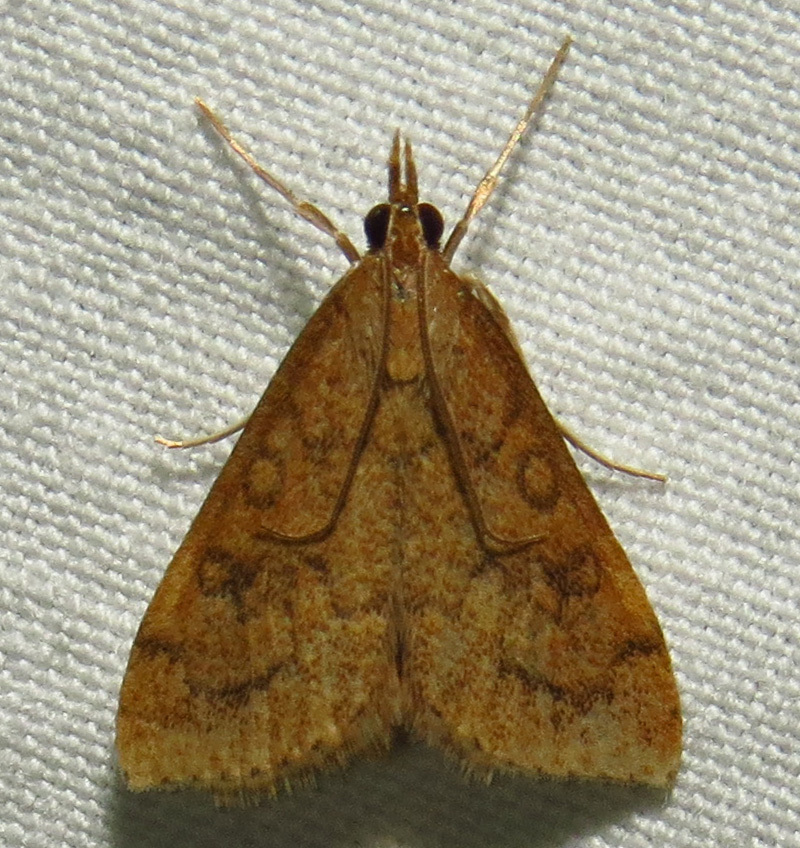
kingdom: Animalia
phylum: Arthropoda
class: Insecta
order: Lepidoptera
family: Crambidae
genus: Udea
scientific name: Udea rubigalis
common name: Celery leaftier moth
